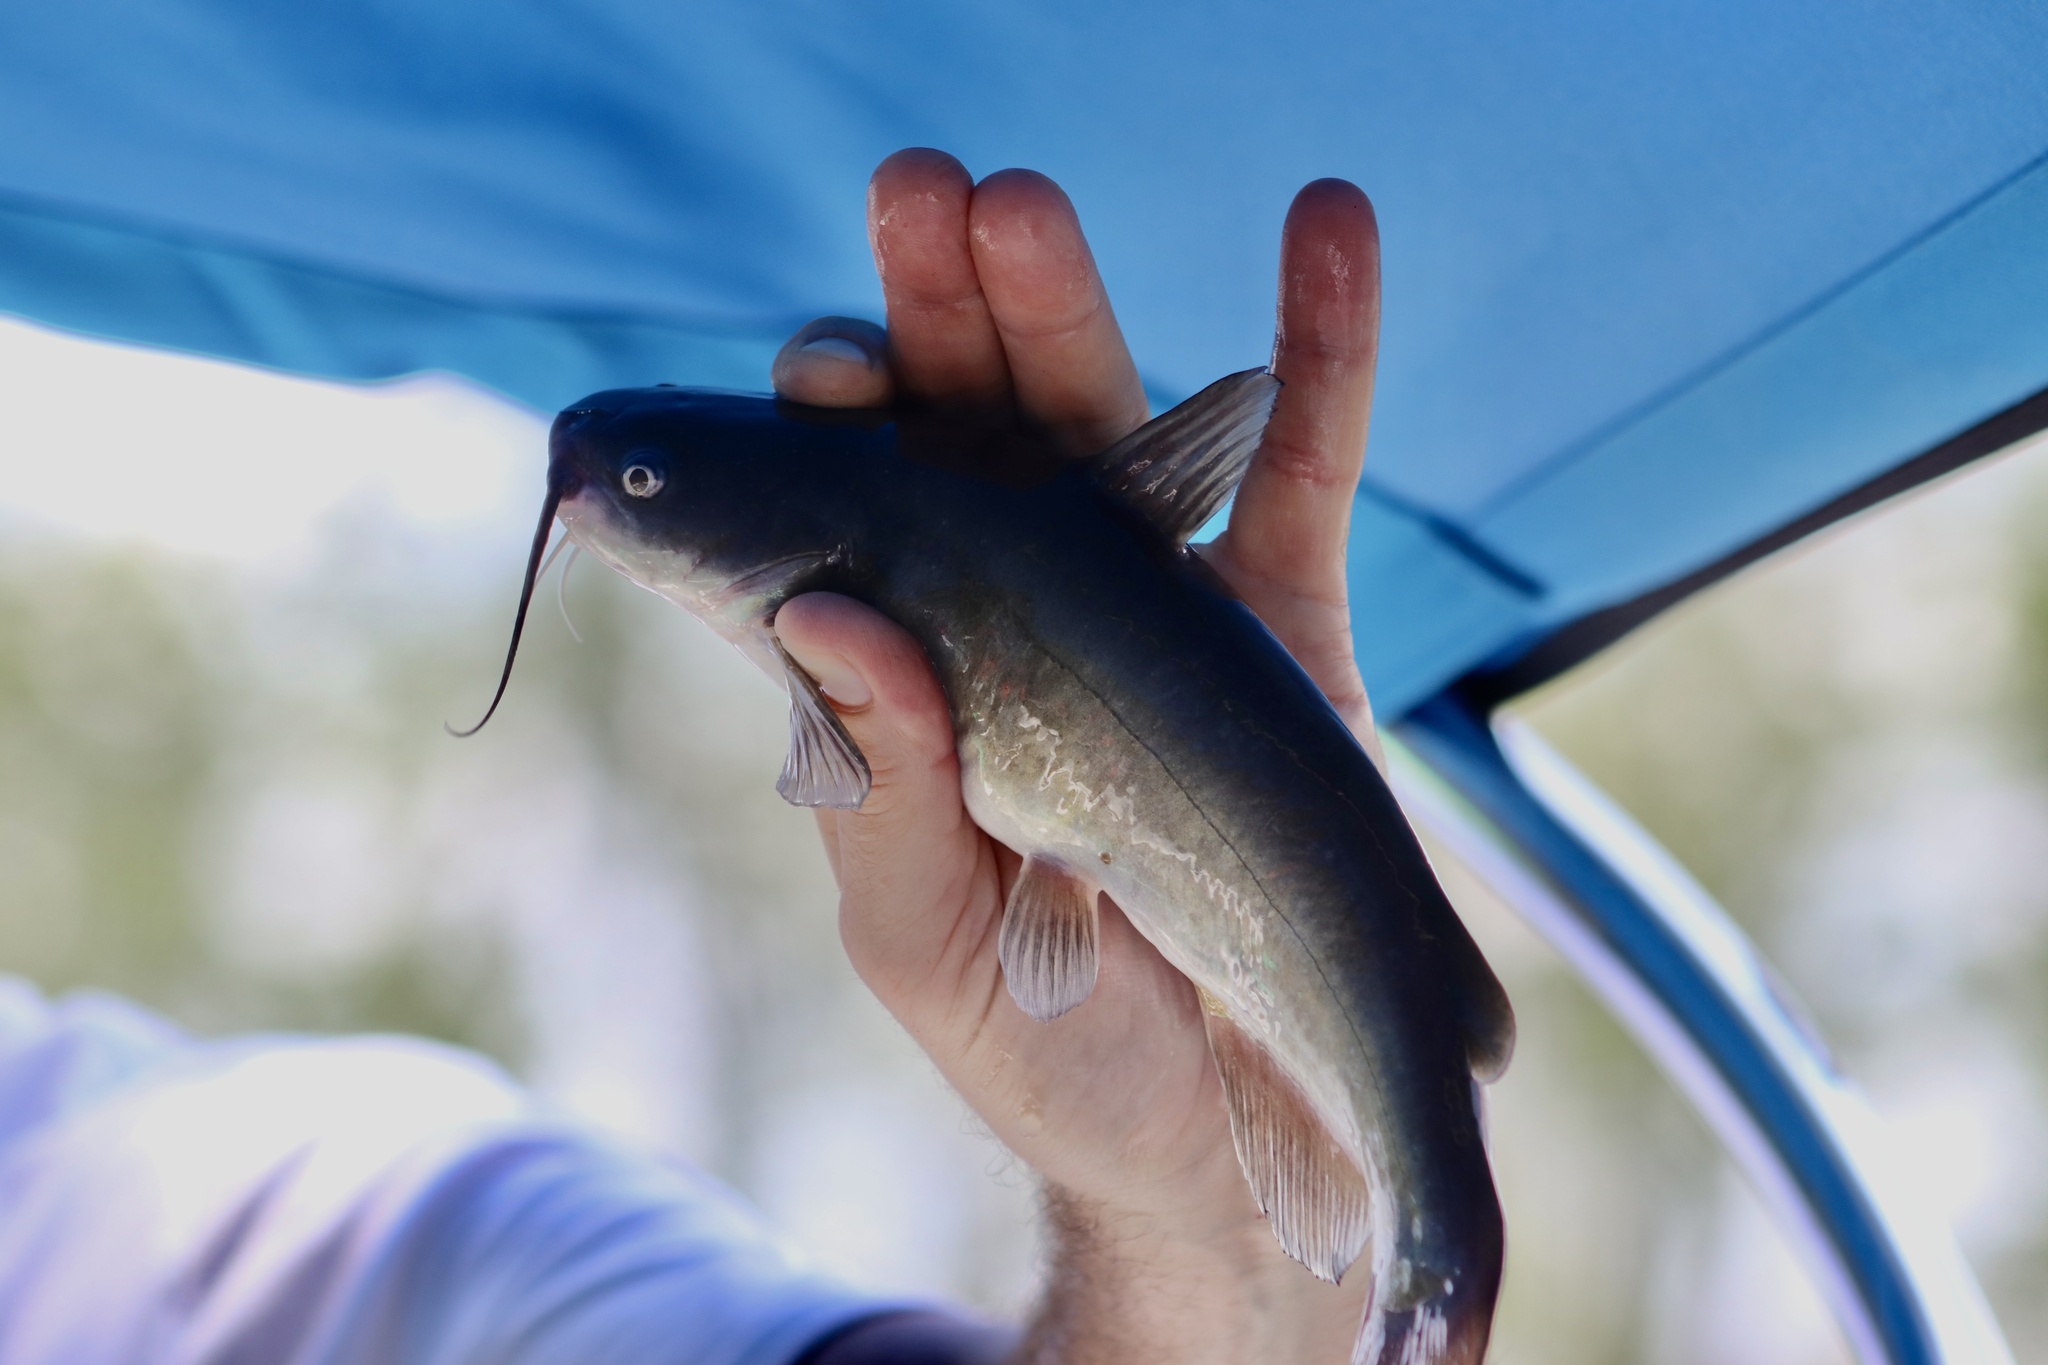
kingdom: Animalia
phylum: Chordata
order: Siluriformes
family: Ictaluridae
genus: Ameiurus
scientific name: Ameiurus catus
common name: White catfish
